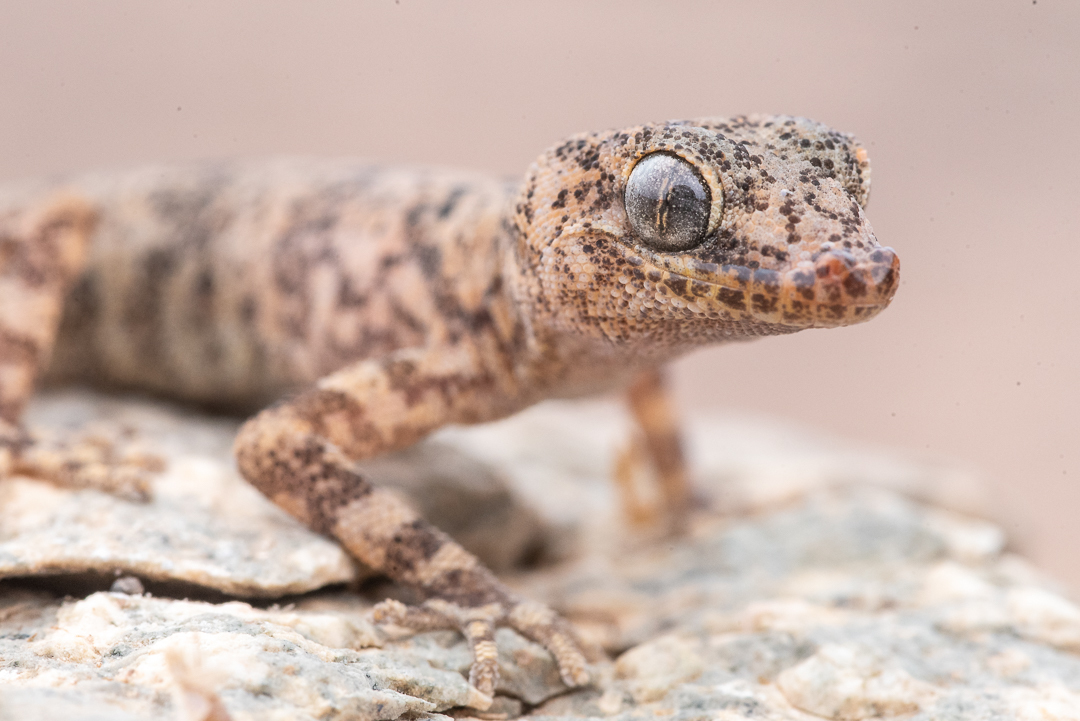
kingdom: Animalia
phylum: Chordata
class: Squamata
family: Phyllodactylidae
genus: Phyllodactylus
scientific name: Phyllodactylus gerrhopygus
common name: South american leaf-toed gecko
